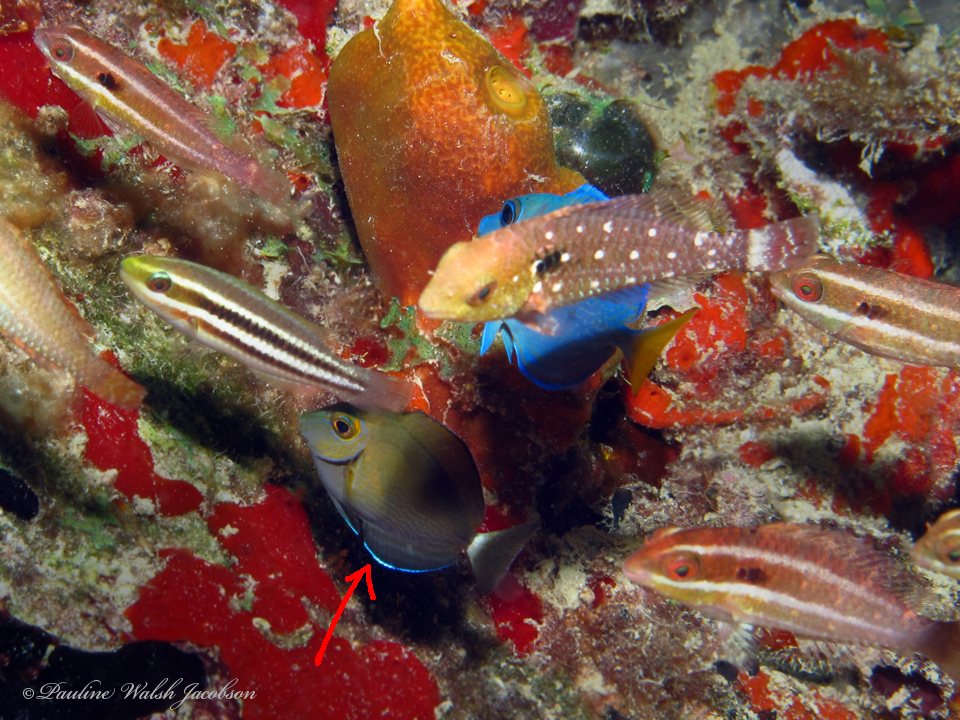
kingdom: Animalia
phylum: Chordata
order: Perciformes
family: Acanthuridae
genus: Acanthurus
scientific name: Acanthurus bahianus
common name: Ocean surgeon
